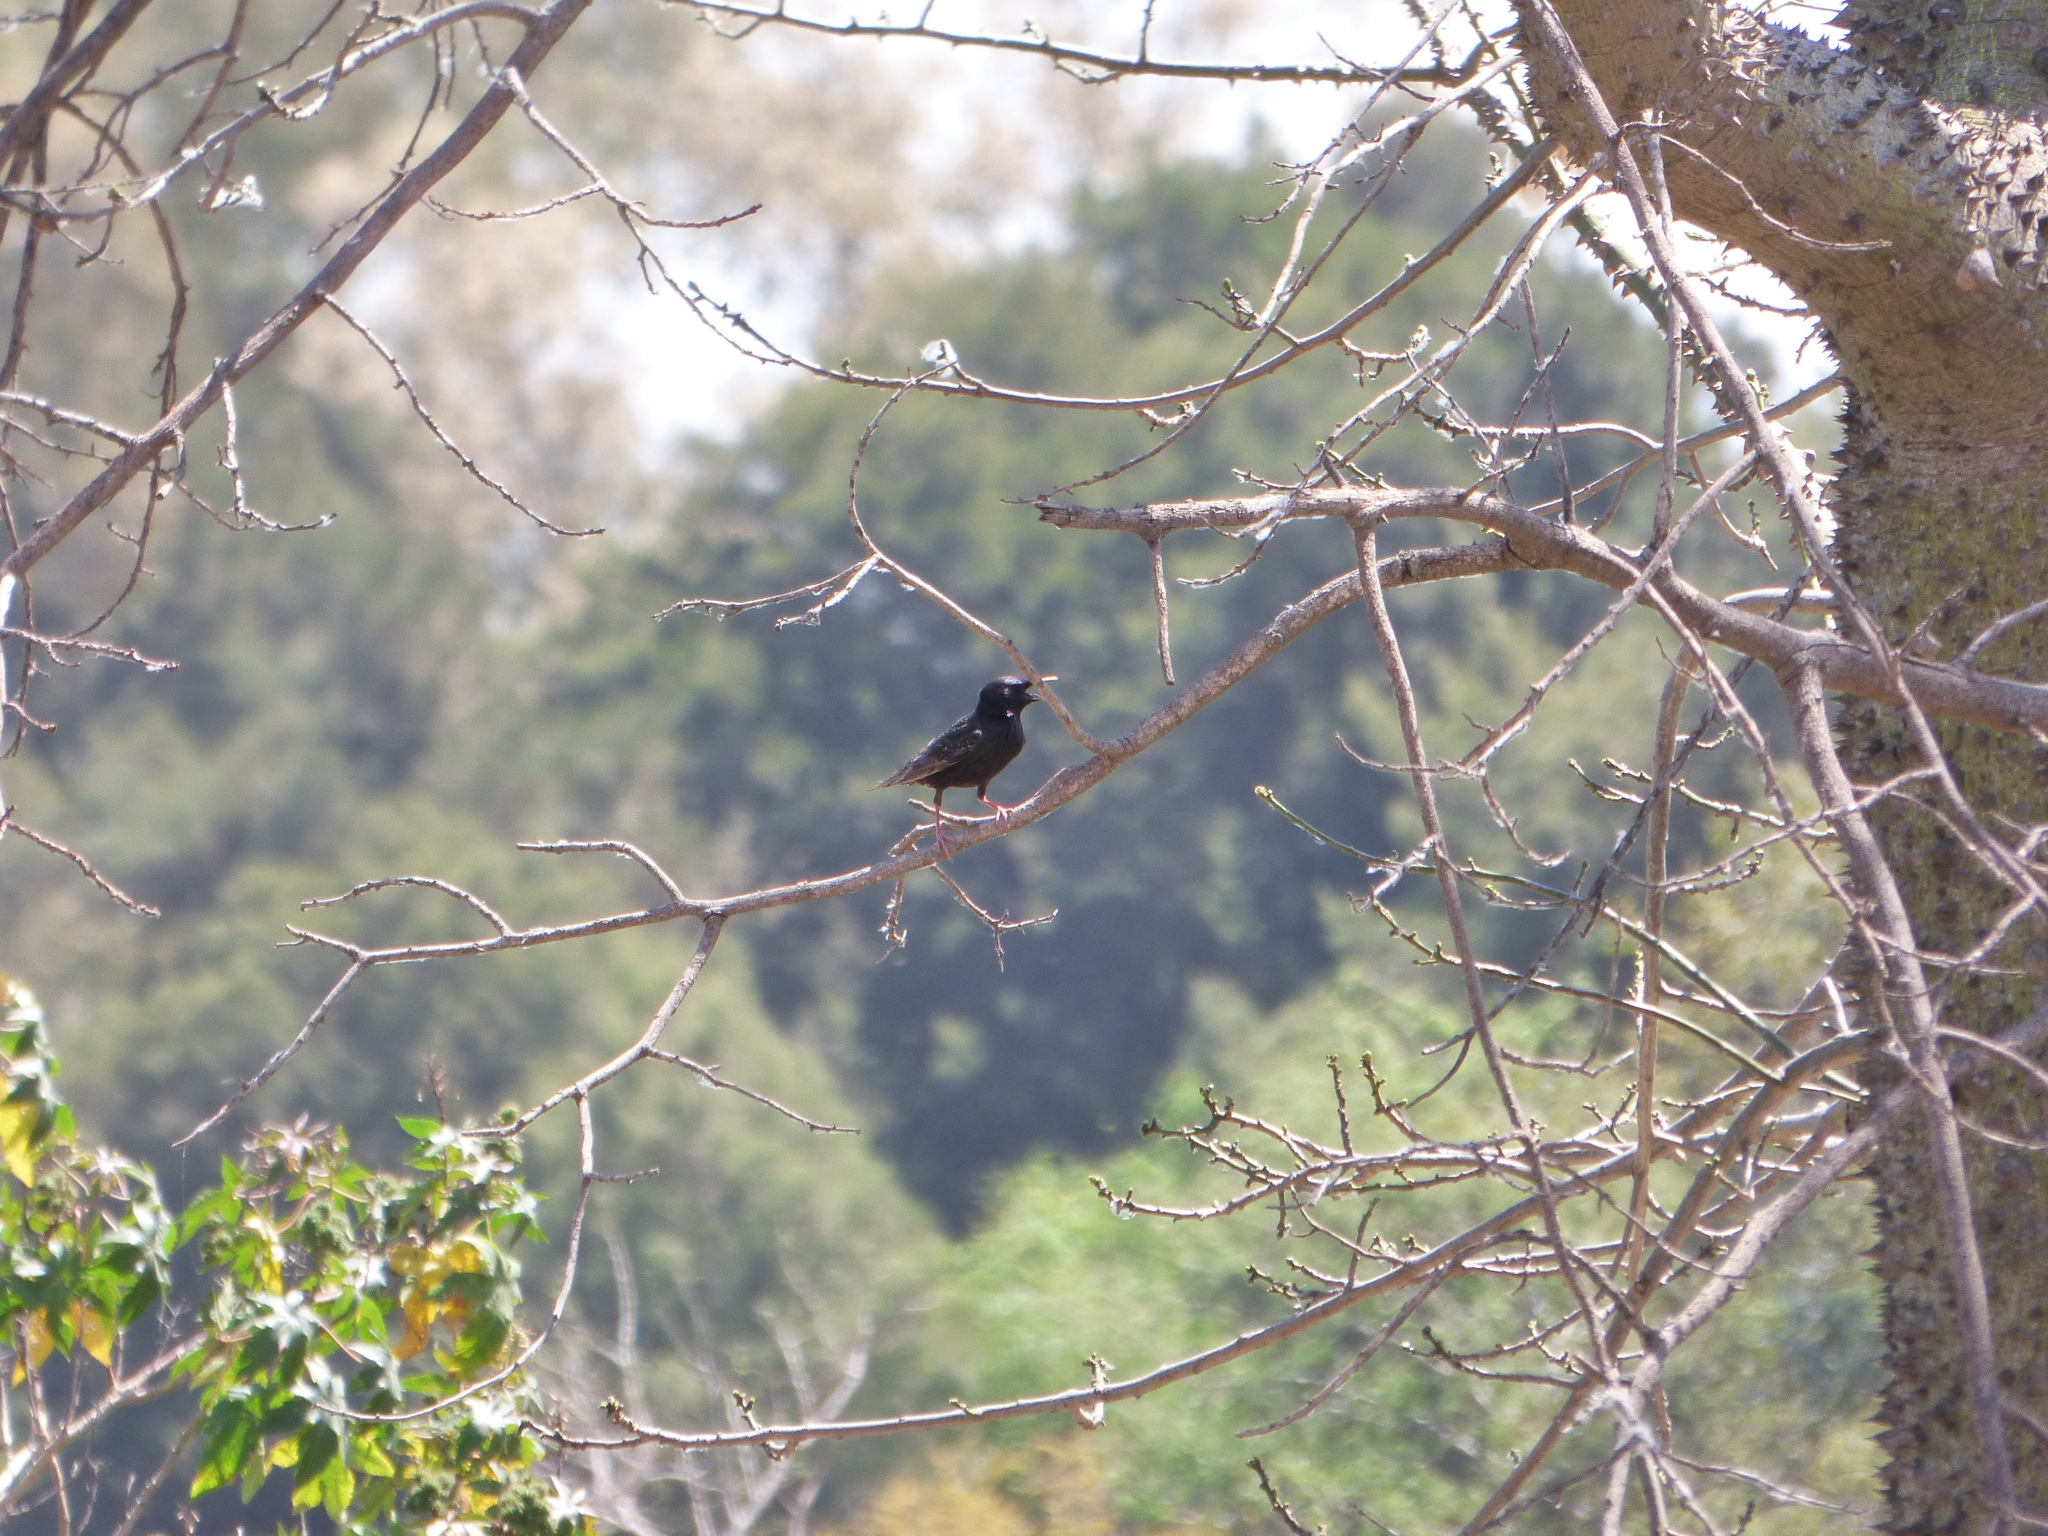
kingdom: Animalia
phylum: Chordata
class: Aves
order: Passeriformes
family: Sturnidae
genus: Sturnus
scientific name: Sturnus vulgaris
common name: Common starling
